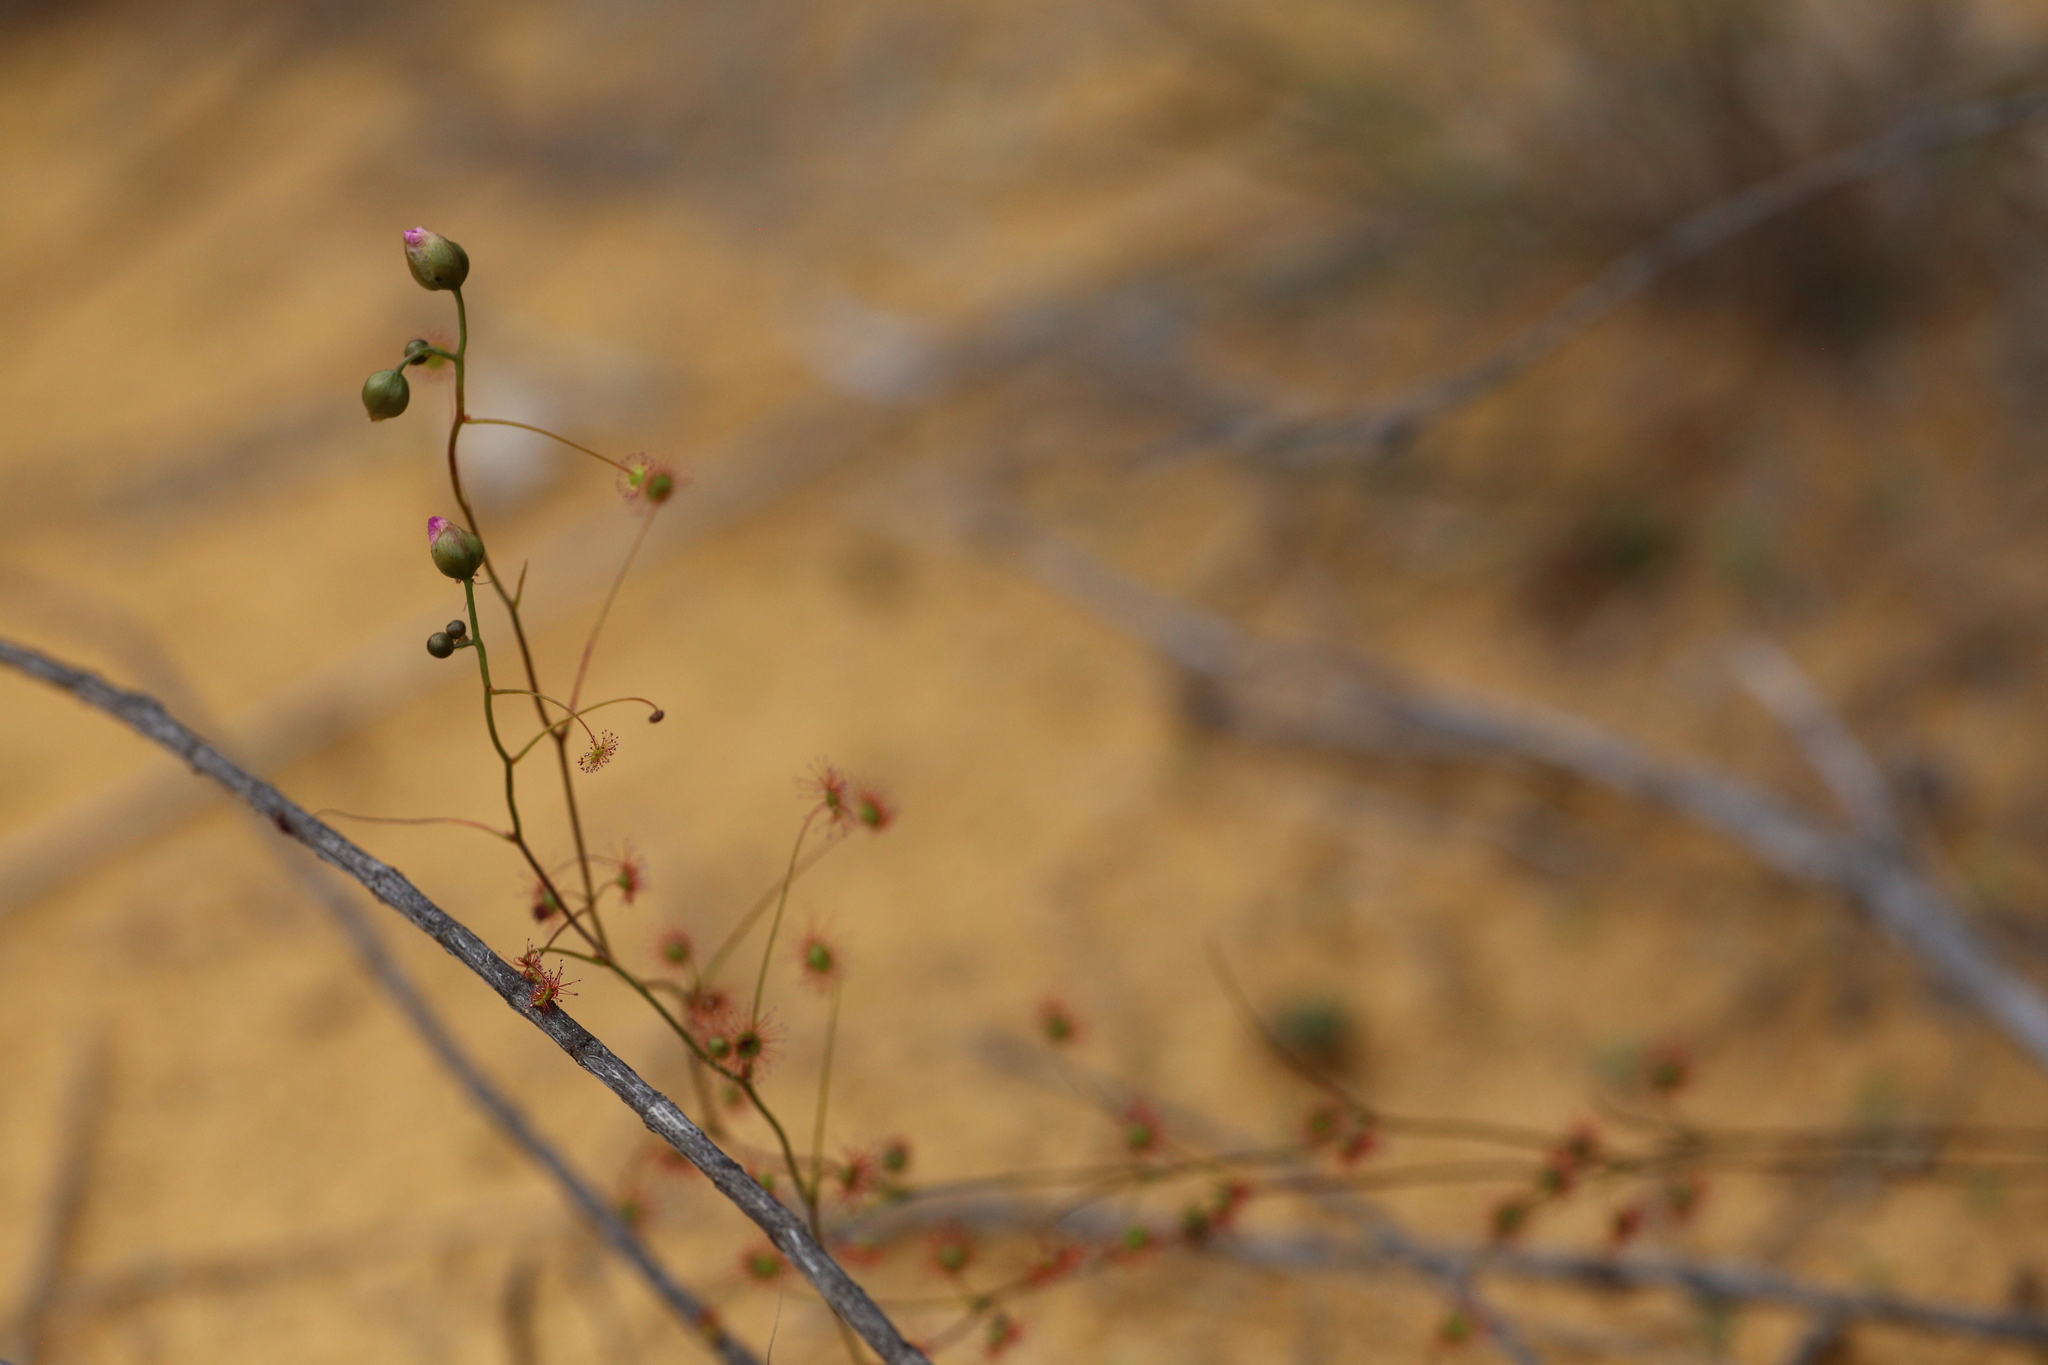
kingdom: Plantae
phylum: Tracheophyta
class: Magnoliopsida
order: Caryophyllales
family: Droseraceae
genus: Drosera
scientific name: Drosera menziesii
